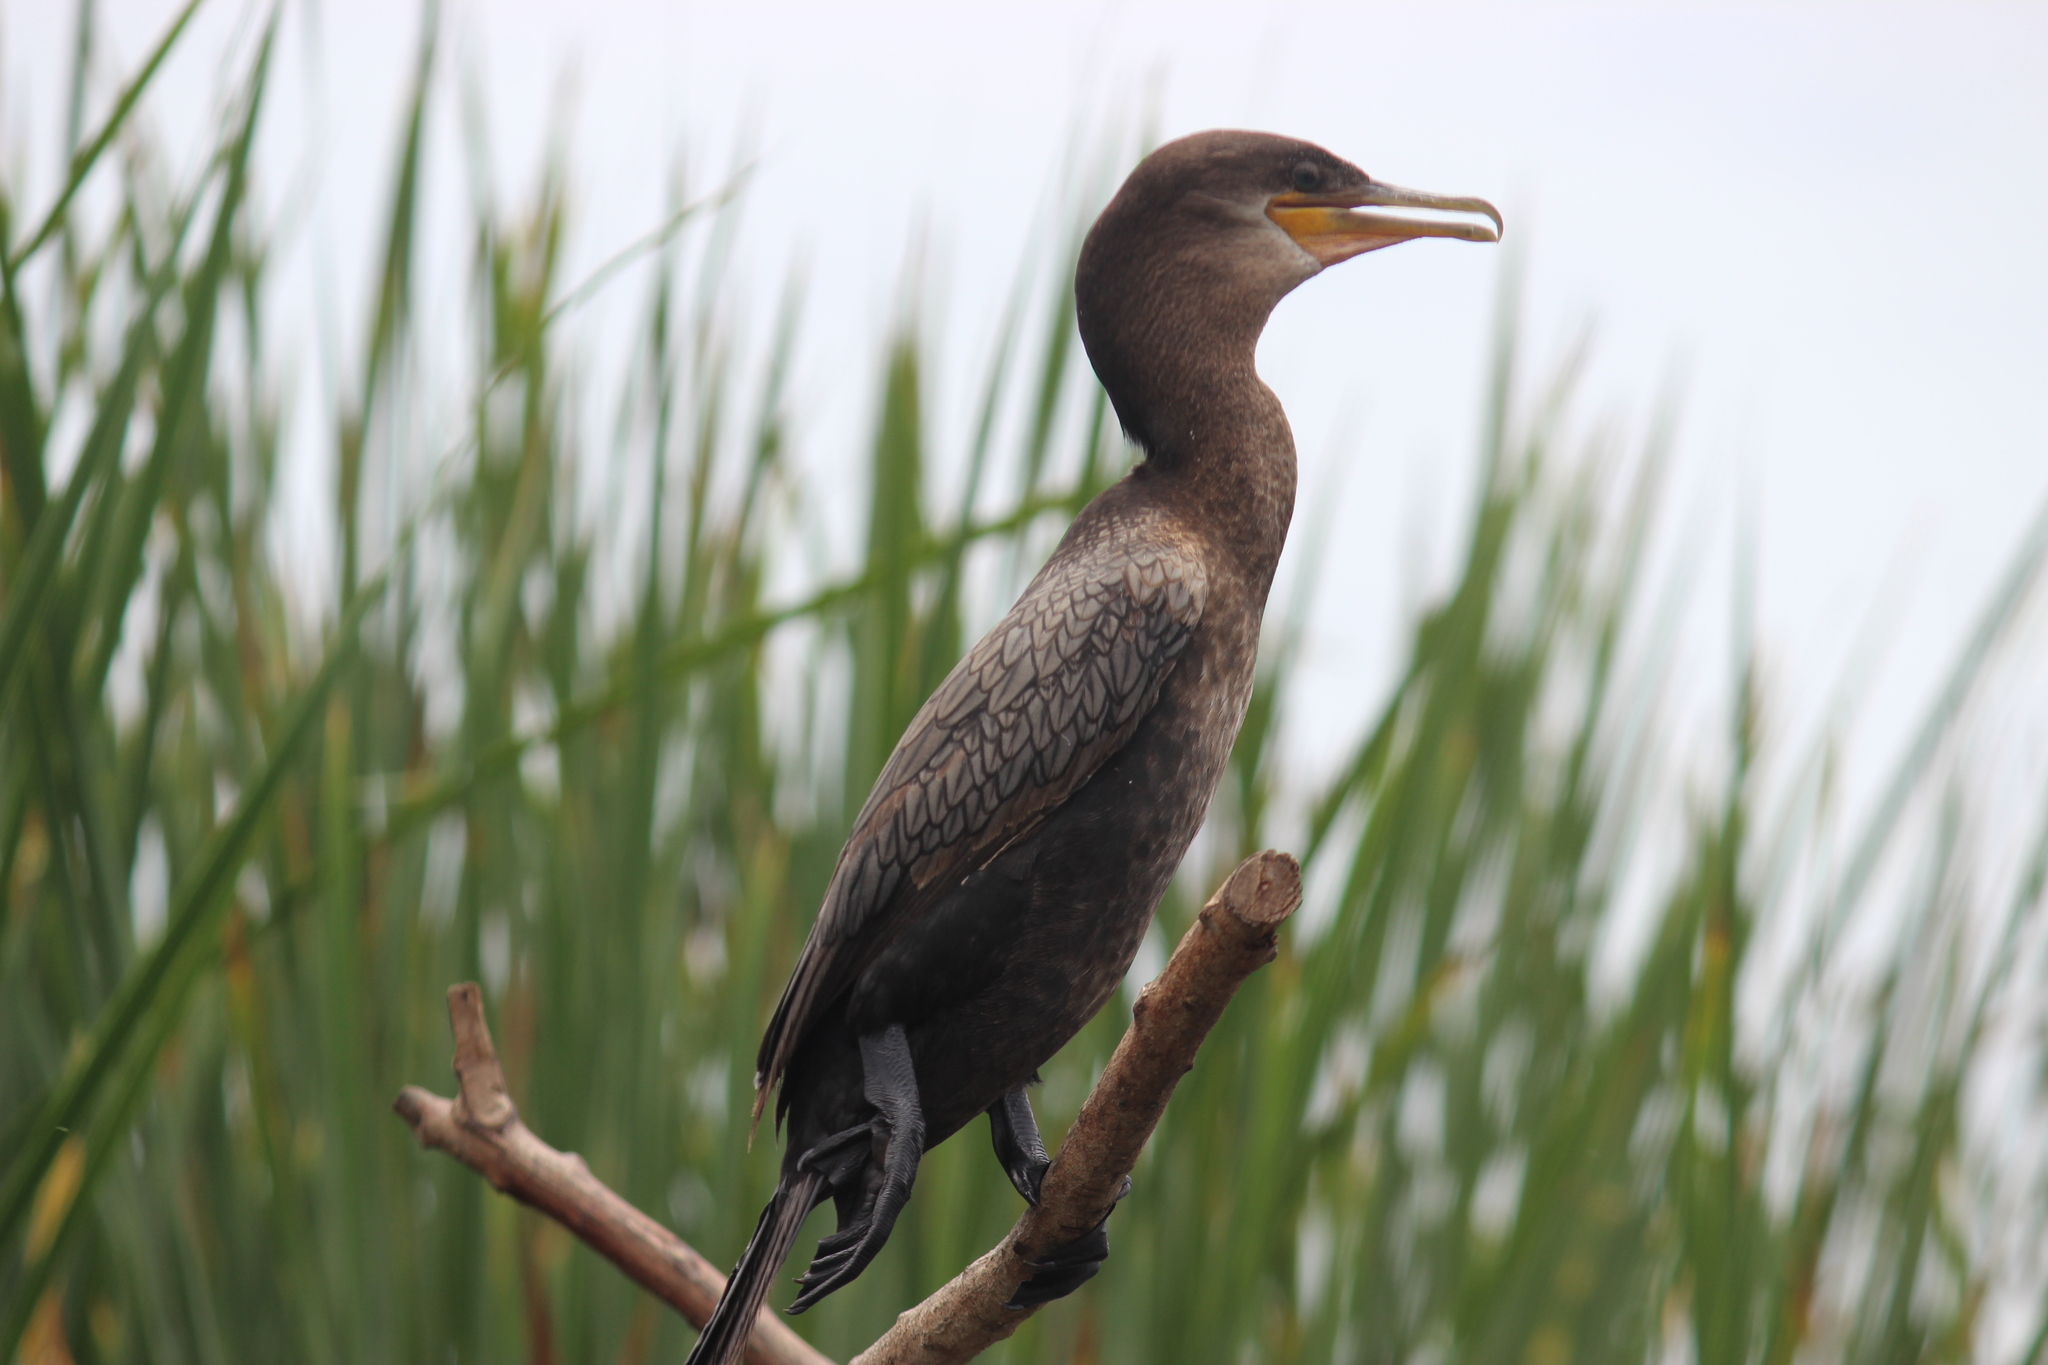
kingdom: Animalia
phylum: Chordata
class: Aves
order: Suliformes
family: Phalacrocoracidae
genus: Phalacrocorax
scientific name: Phalacrocorax brasilianus
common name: Neotropic cormorant
